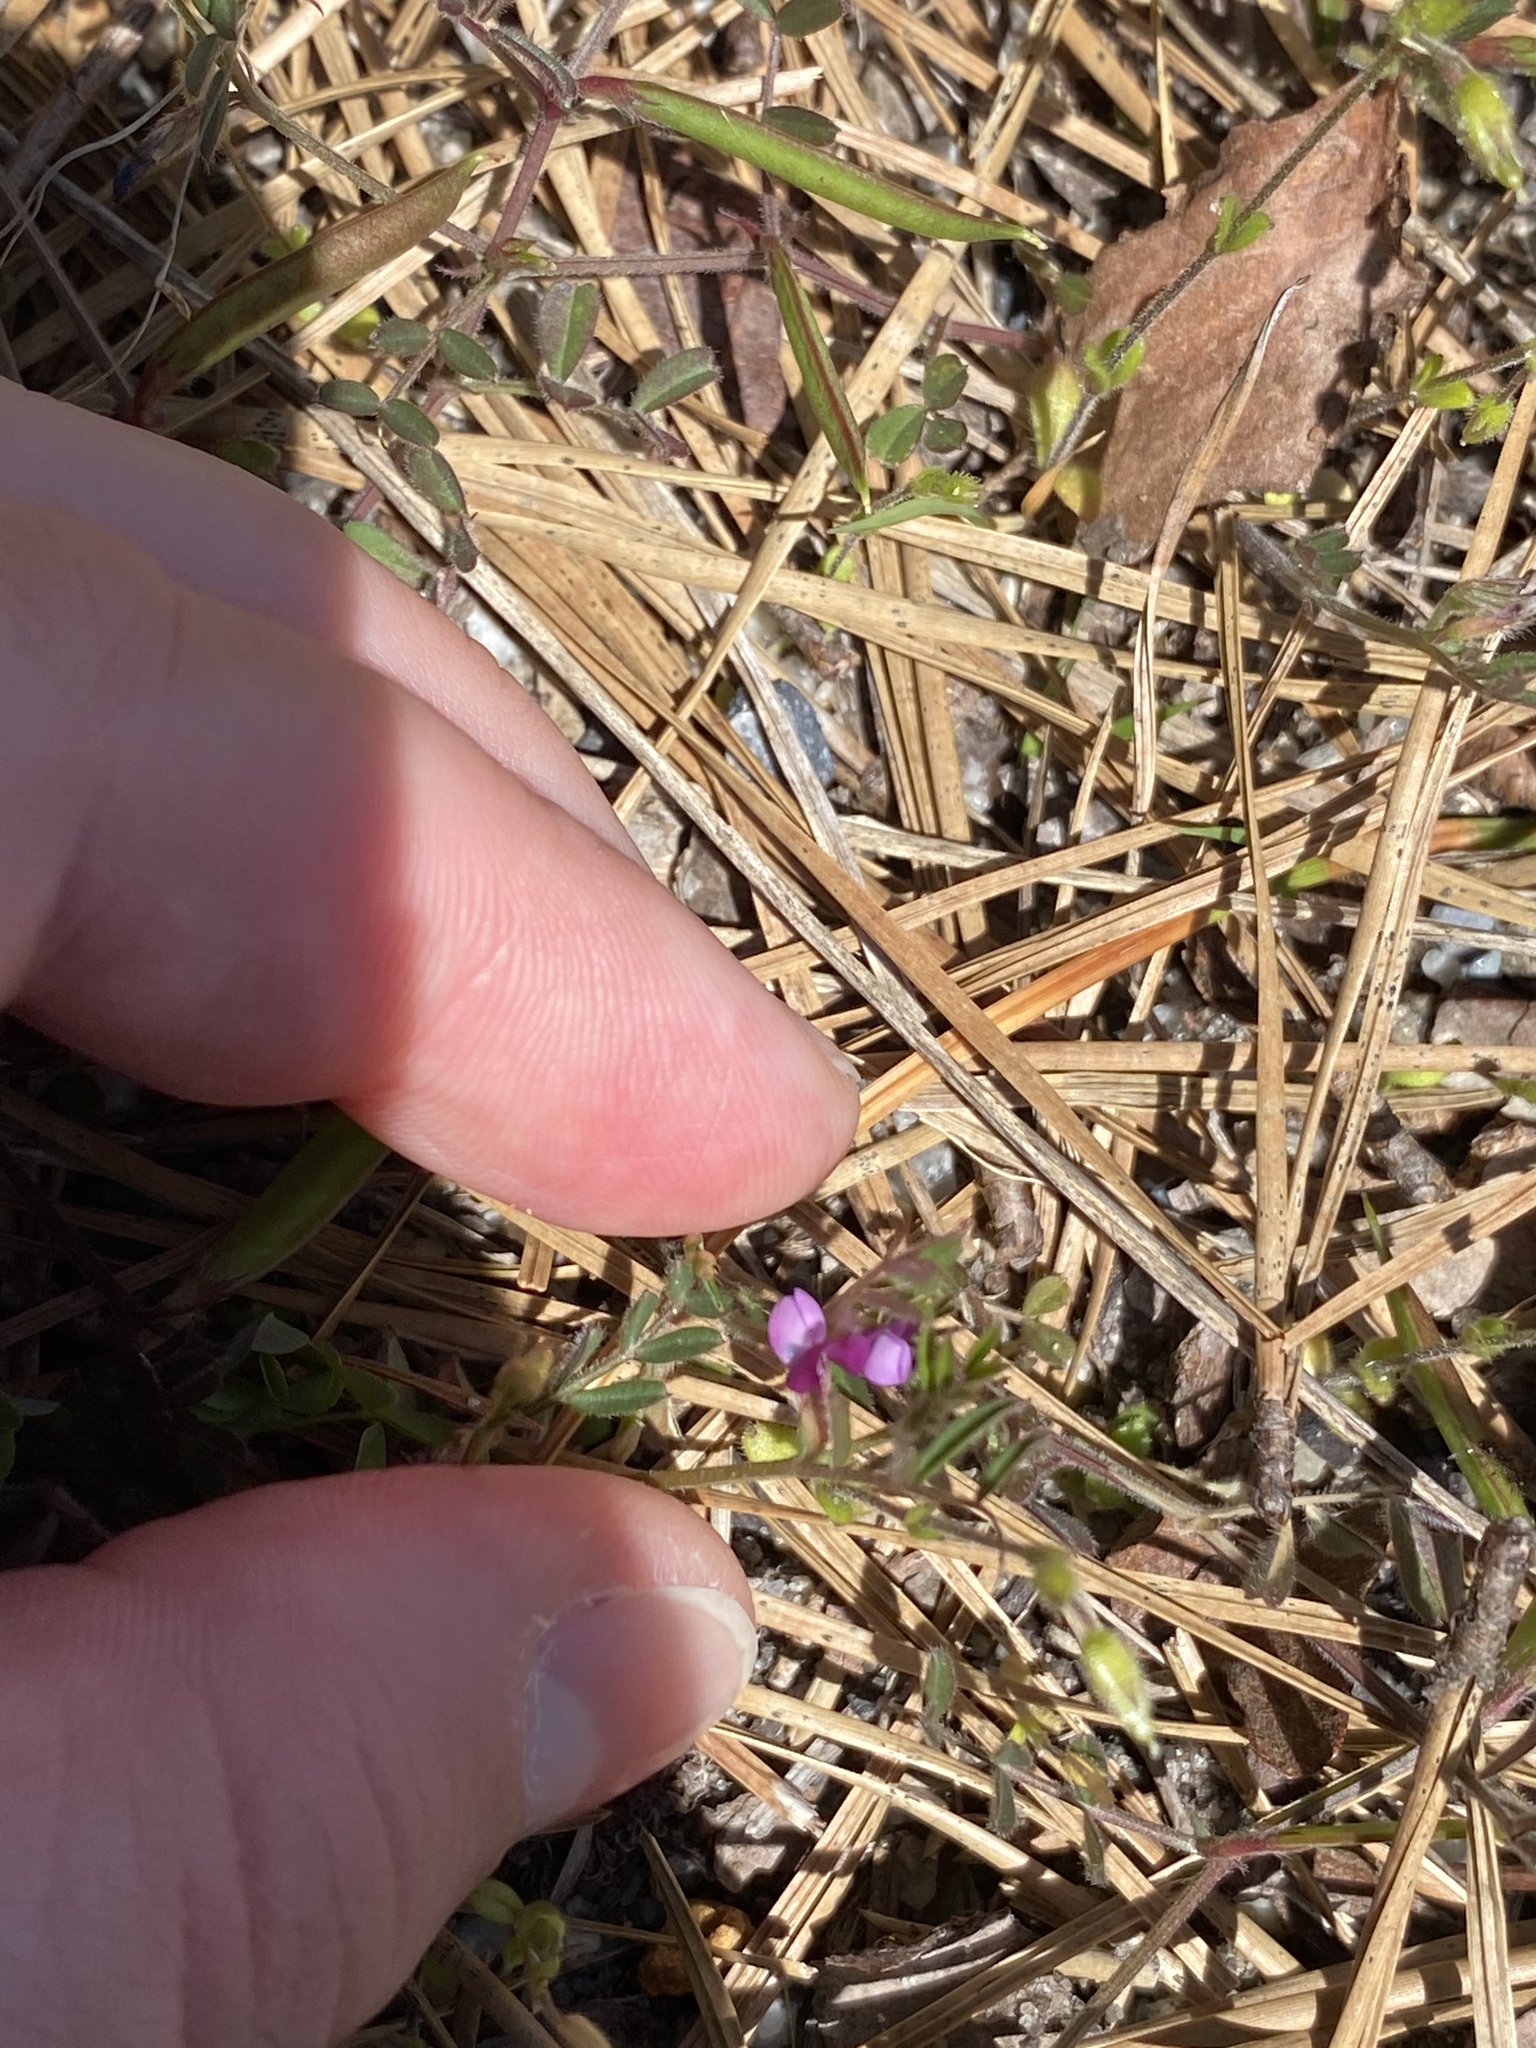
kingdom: Plantae
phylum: Tracheophyta
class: Magnoliopsida
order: Fabales
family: Fabaceae
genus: Vicia
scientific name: Vicia lathyroides
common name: Spring vetch
